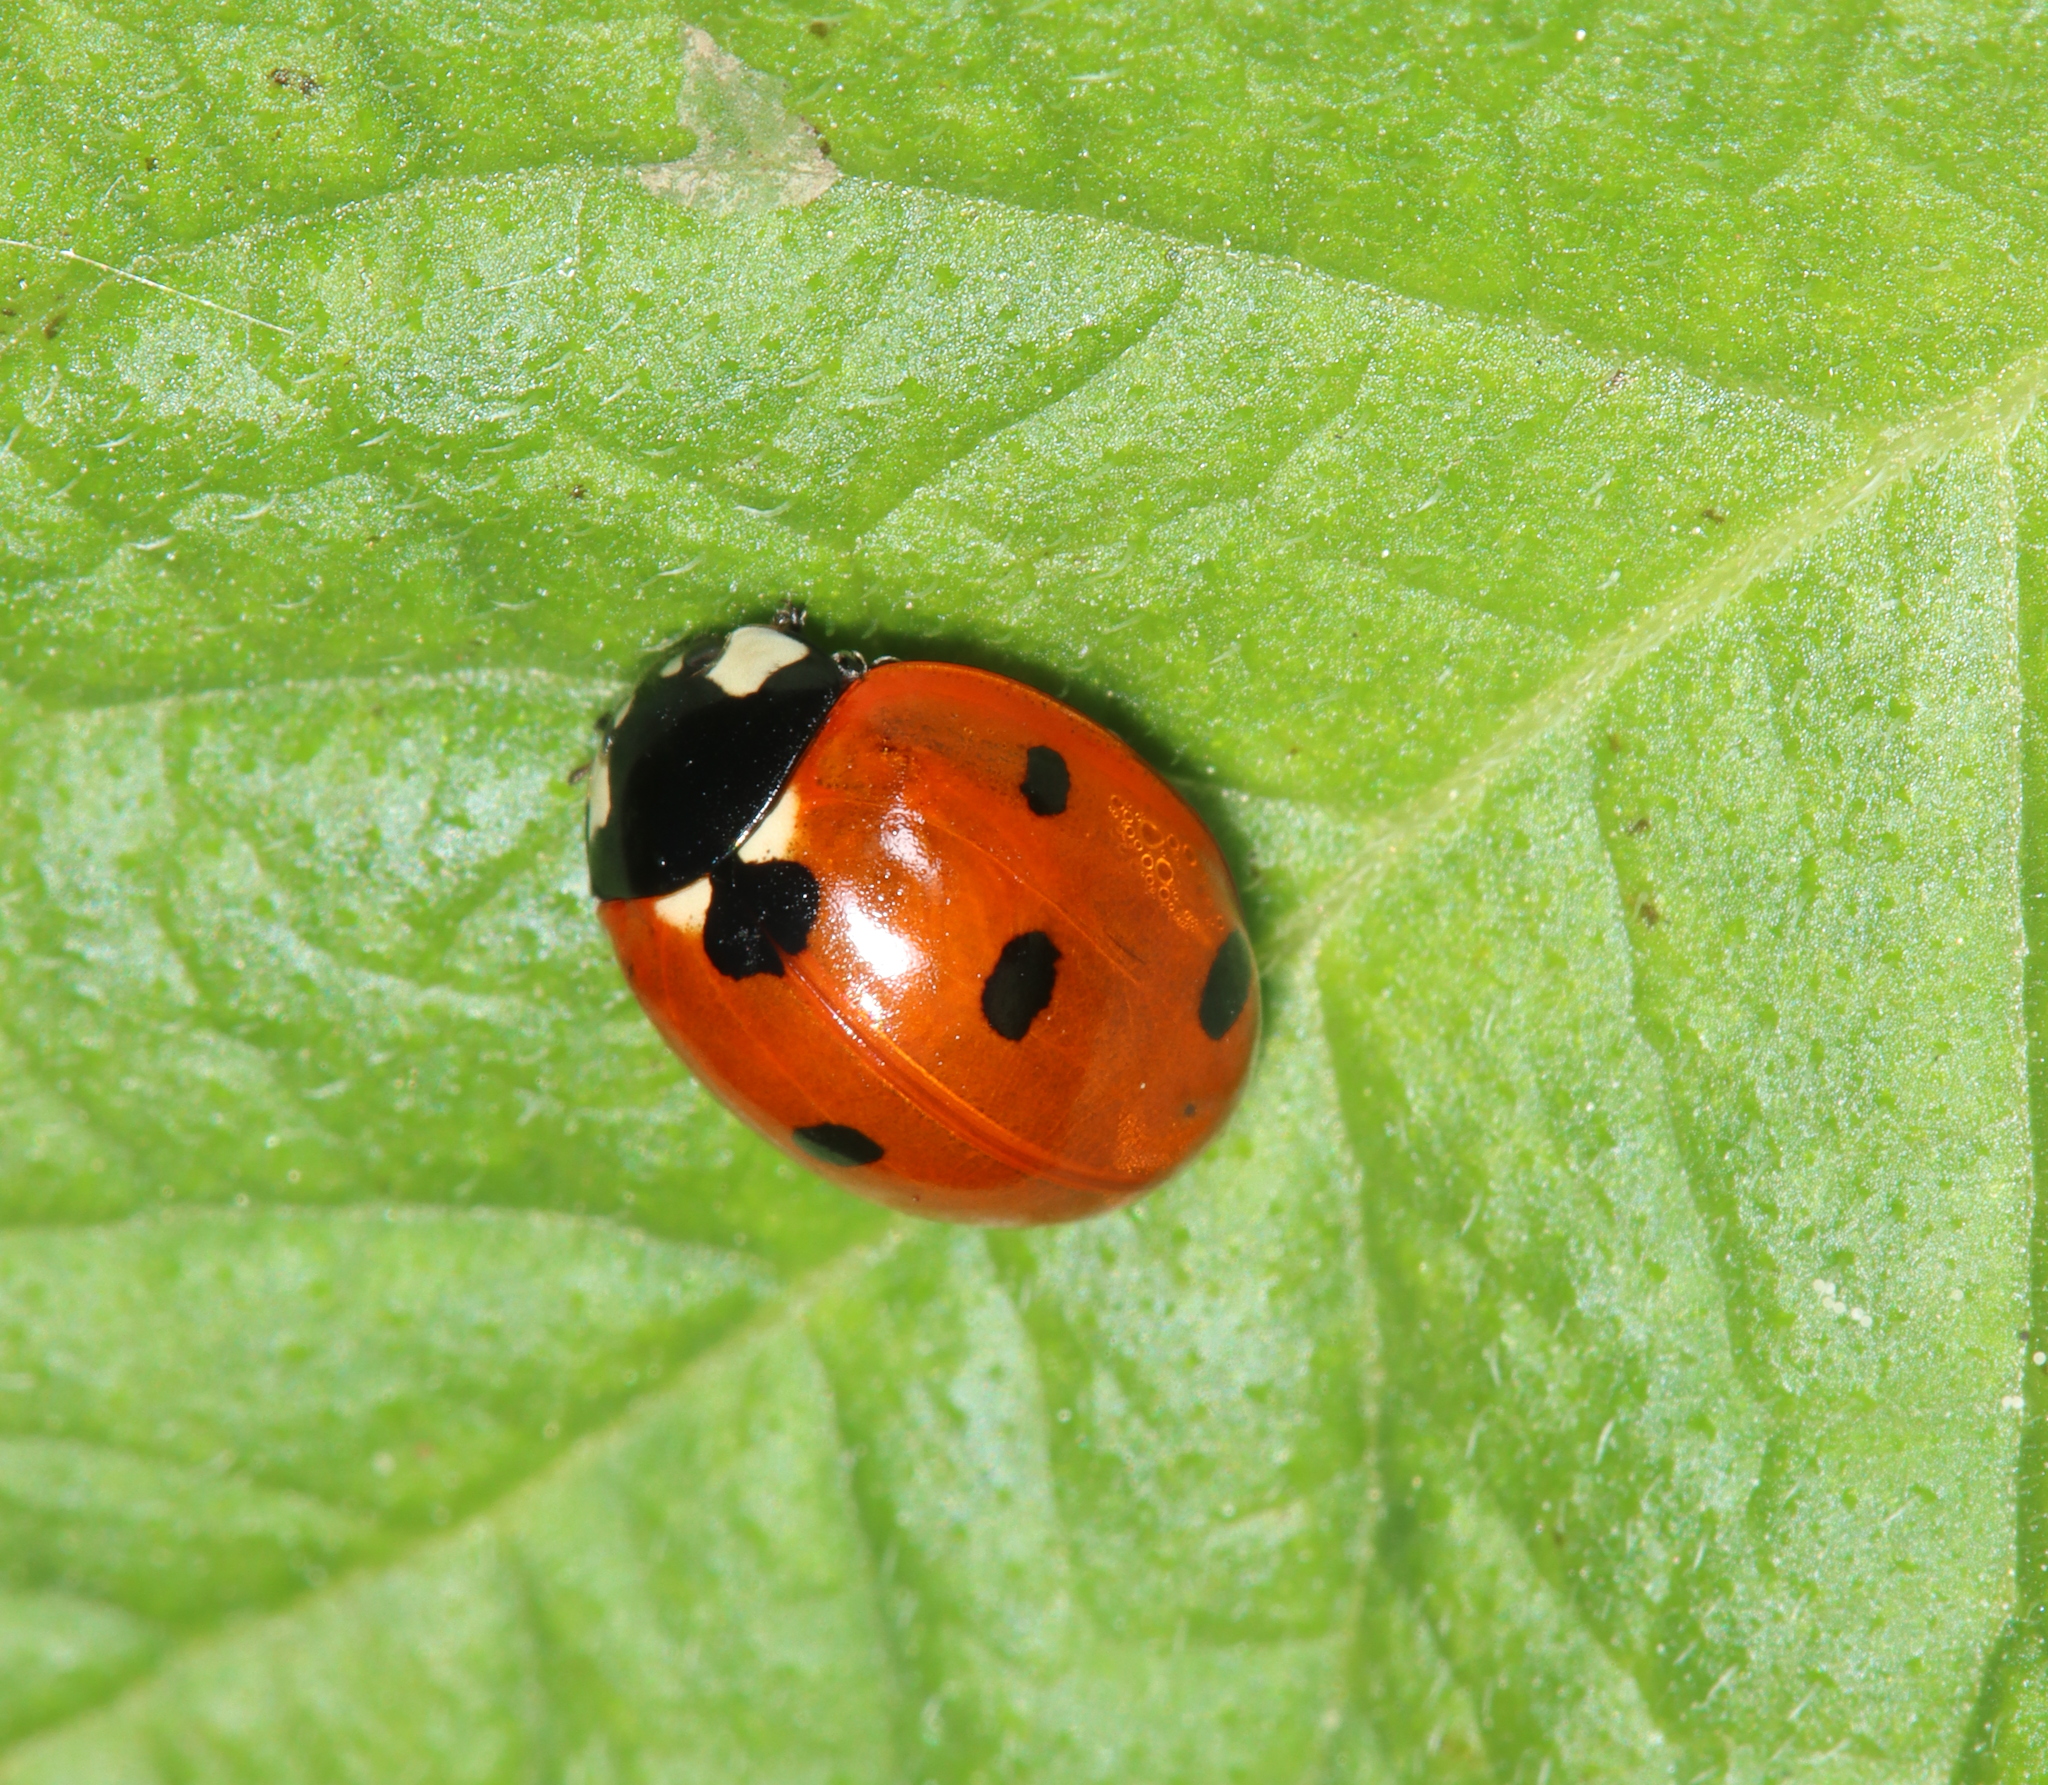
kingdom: Animalia
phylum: Arthropoda
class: Insecta
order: Coleoptera
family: Coccinellidae
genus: Coccinella
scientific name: Coccinella septempunctata
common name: Sevenspotted lady beetle
